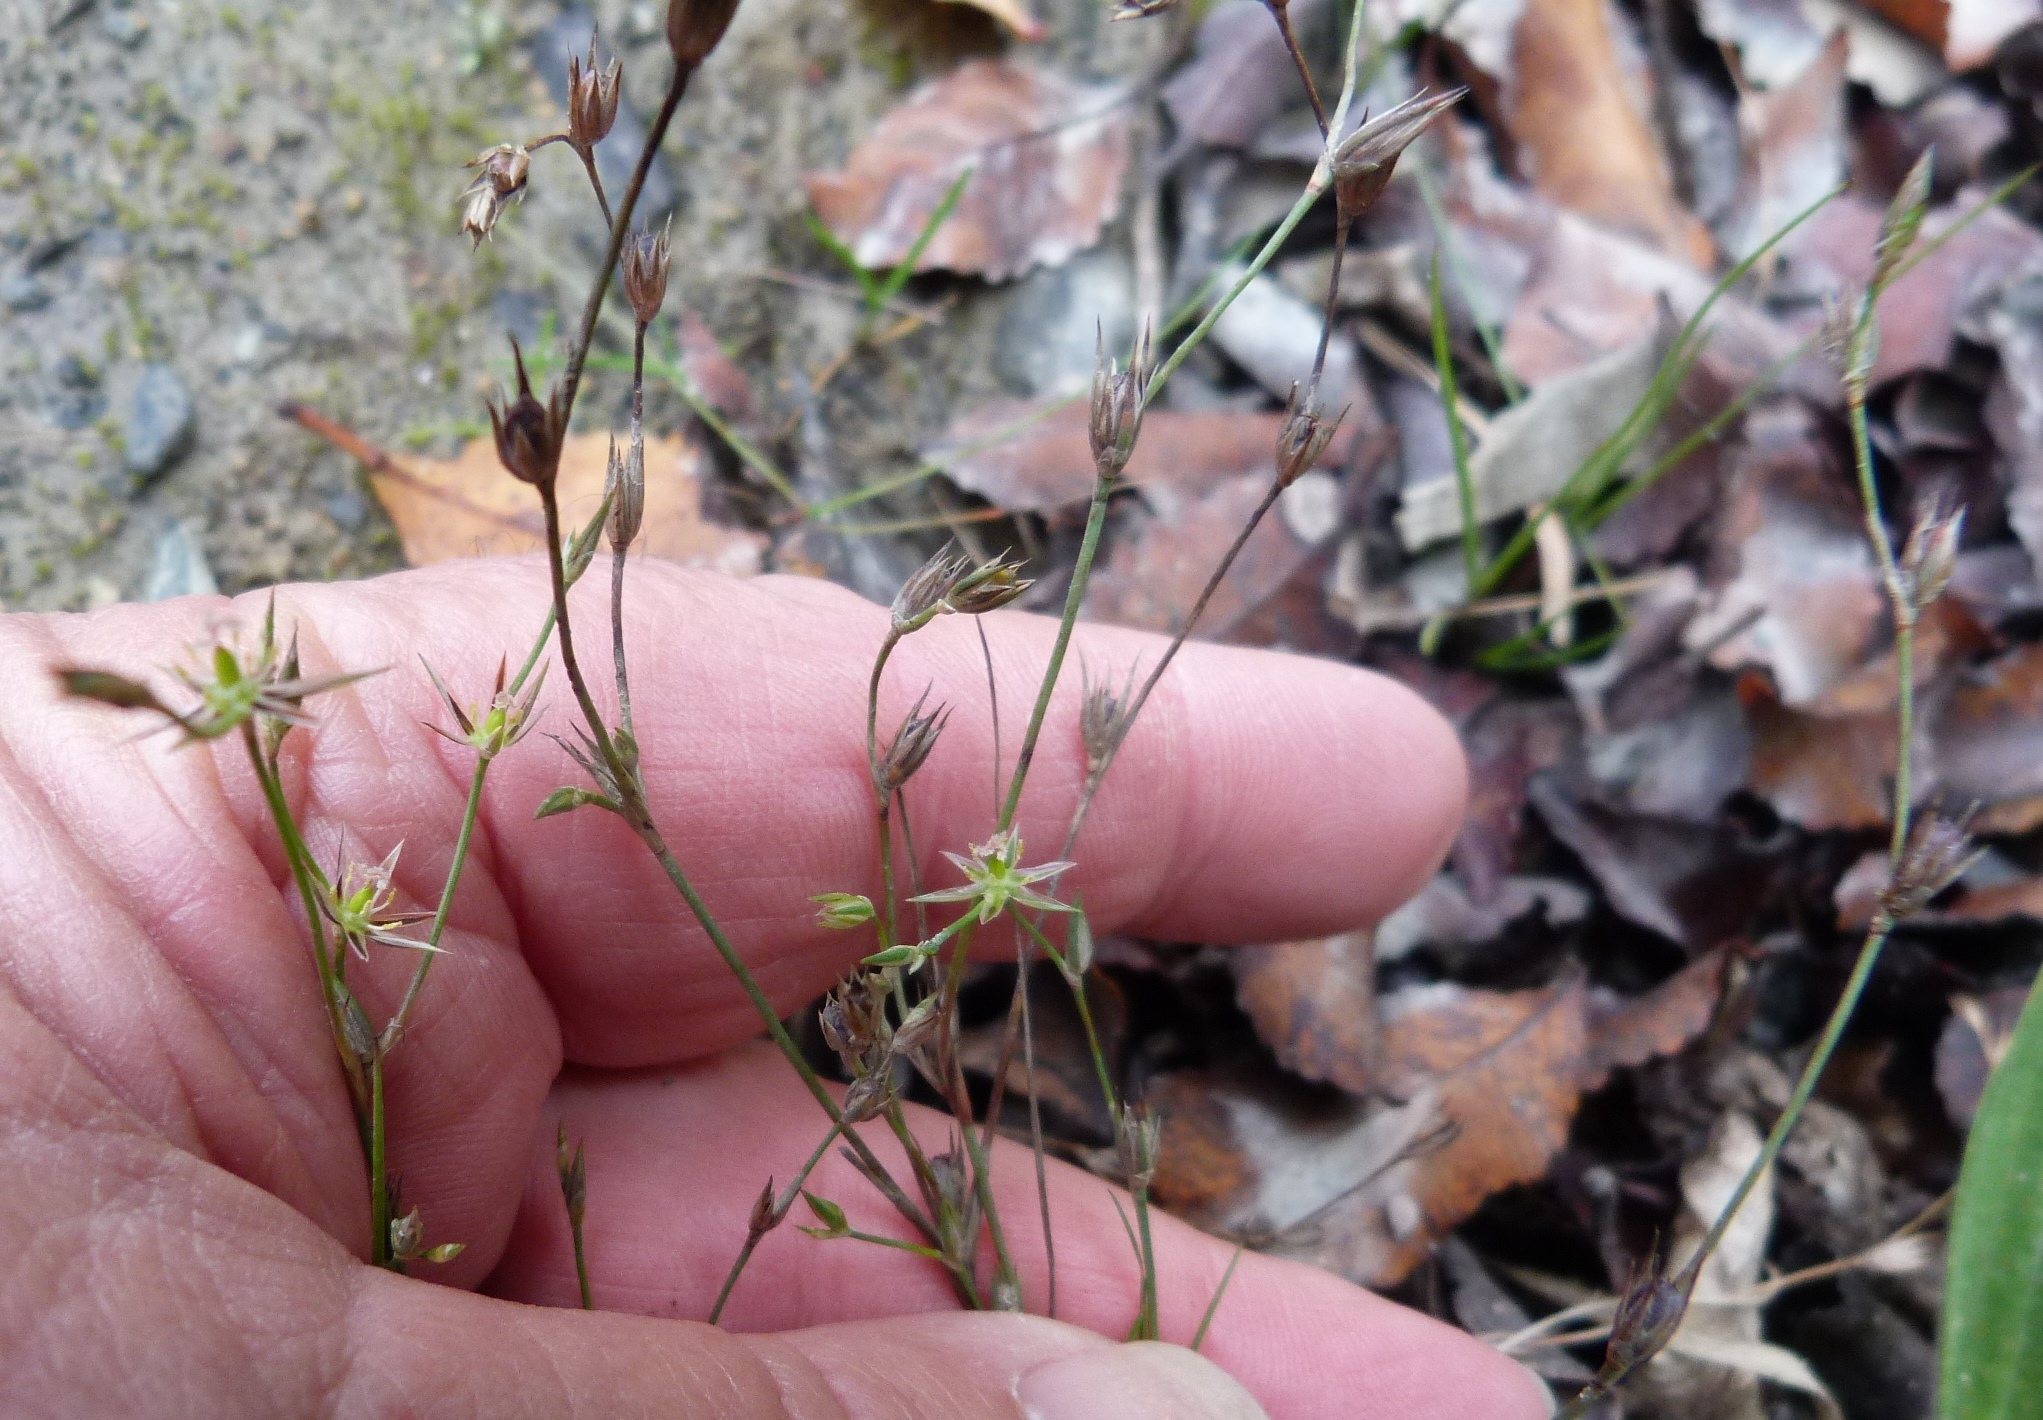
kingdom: Plantae
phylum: Tracheophyta
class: Liliopsida
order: Poales
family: Juncaceae
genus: Juncus
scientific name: Juncus bufonius
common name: Toad rush
